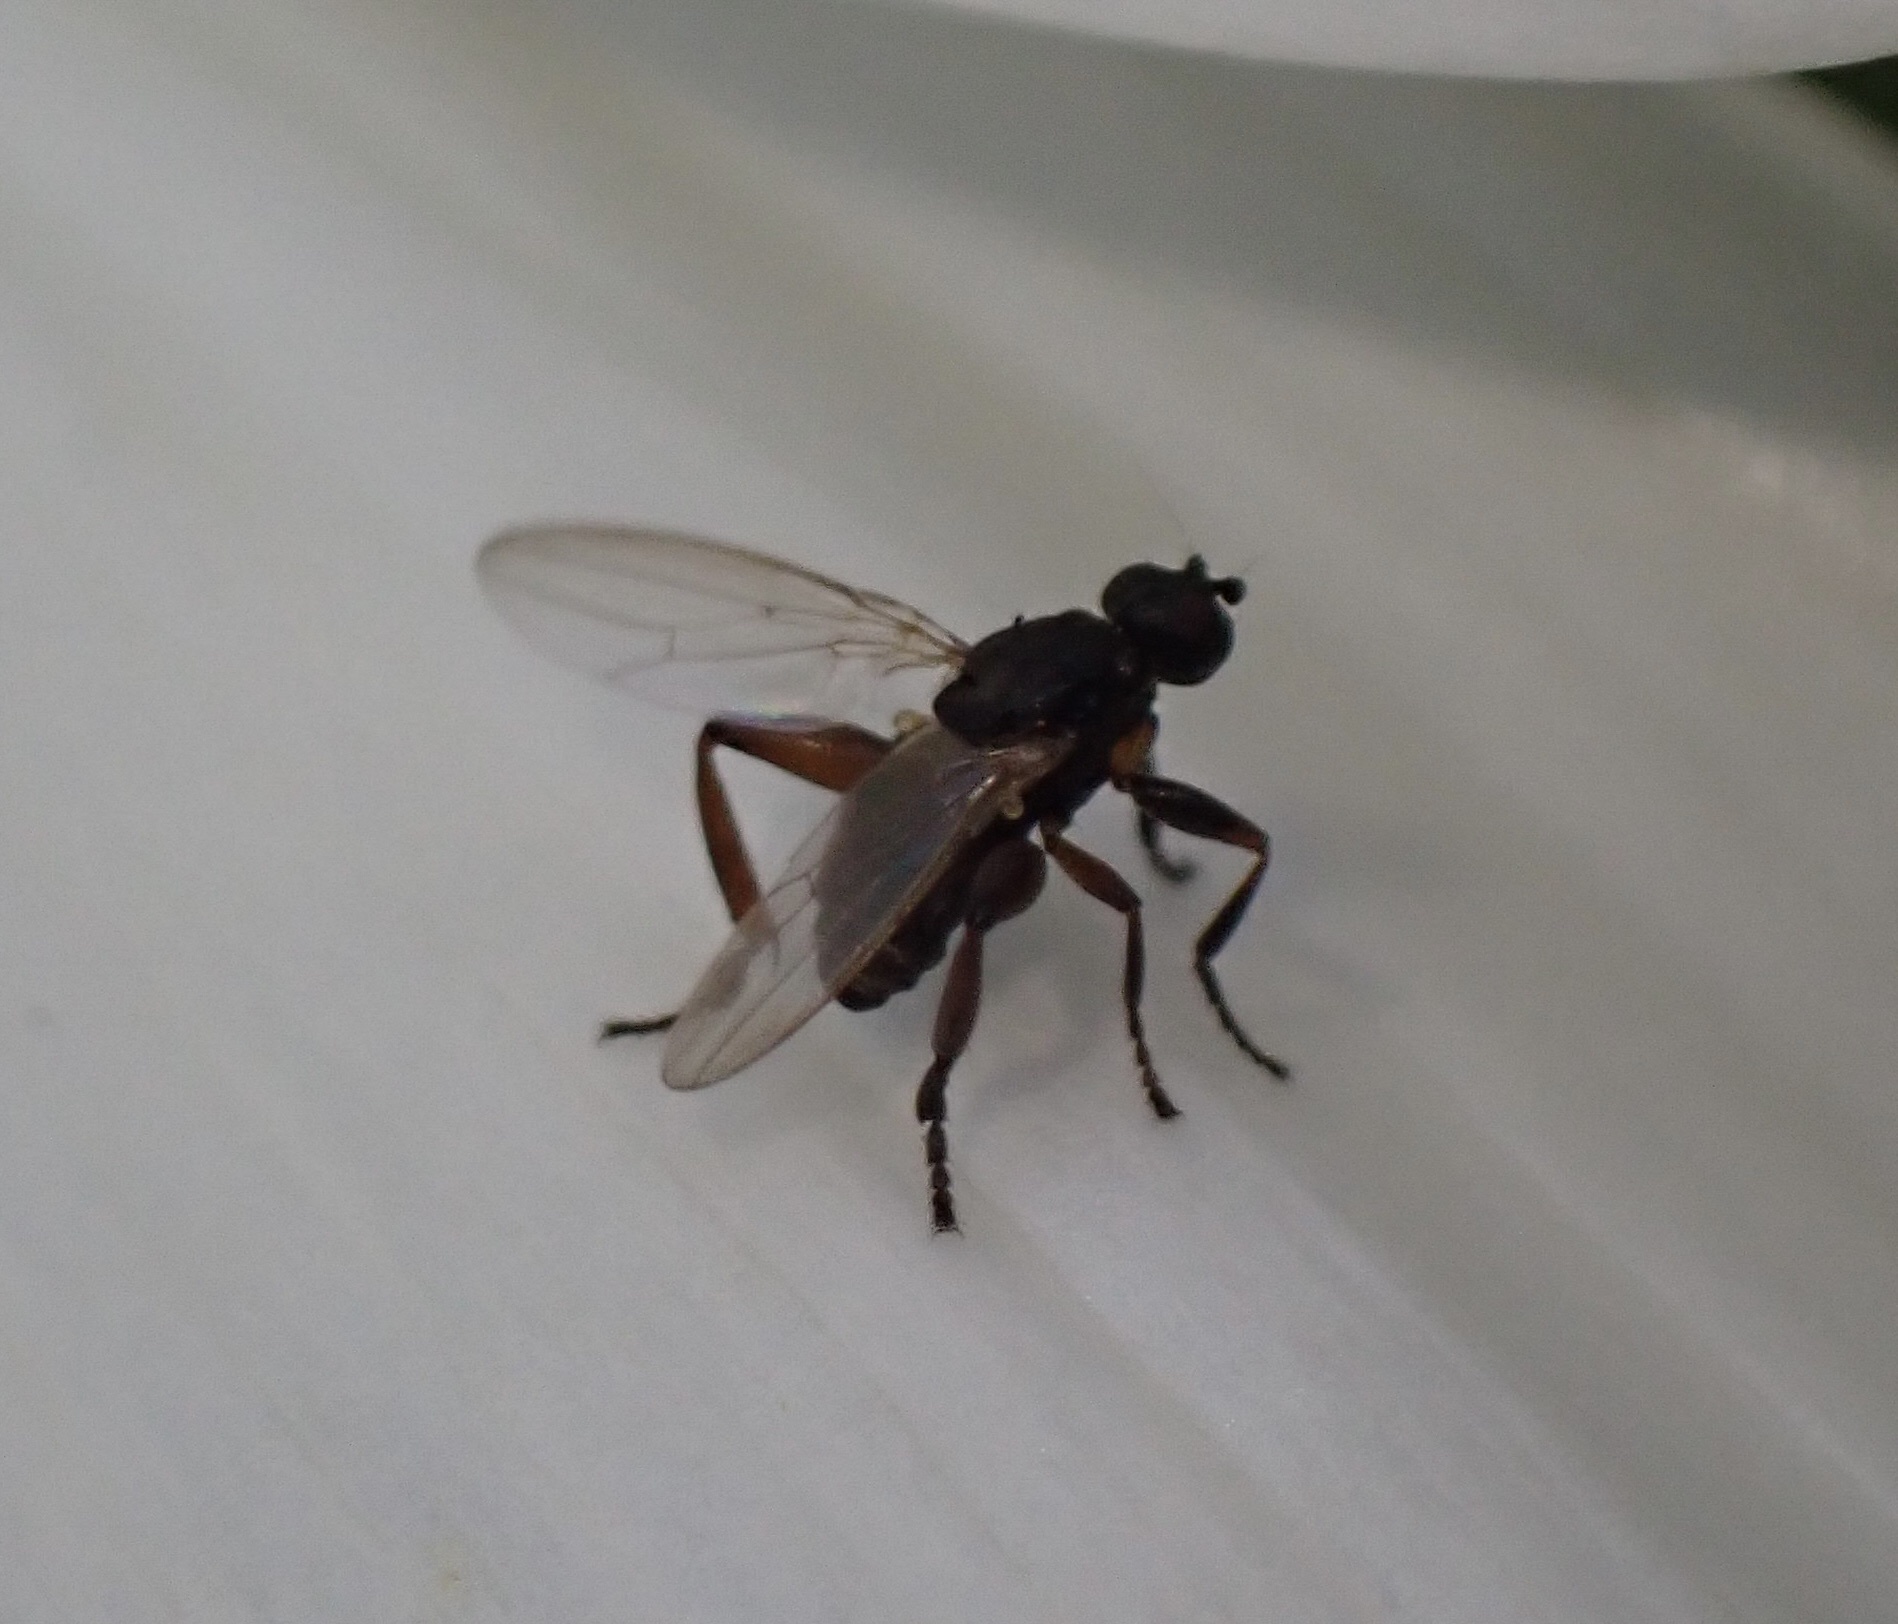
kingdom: Animalia
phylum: Arthropoda
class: Insecta
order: Diptera
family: Sphaeroceridae
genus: Sphaerocera
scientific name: Sphaerocera curvipes
